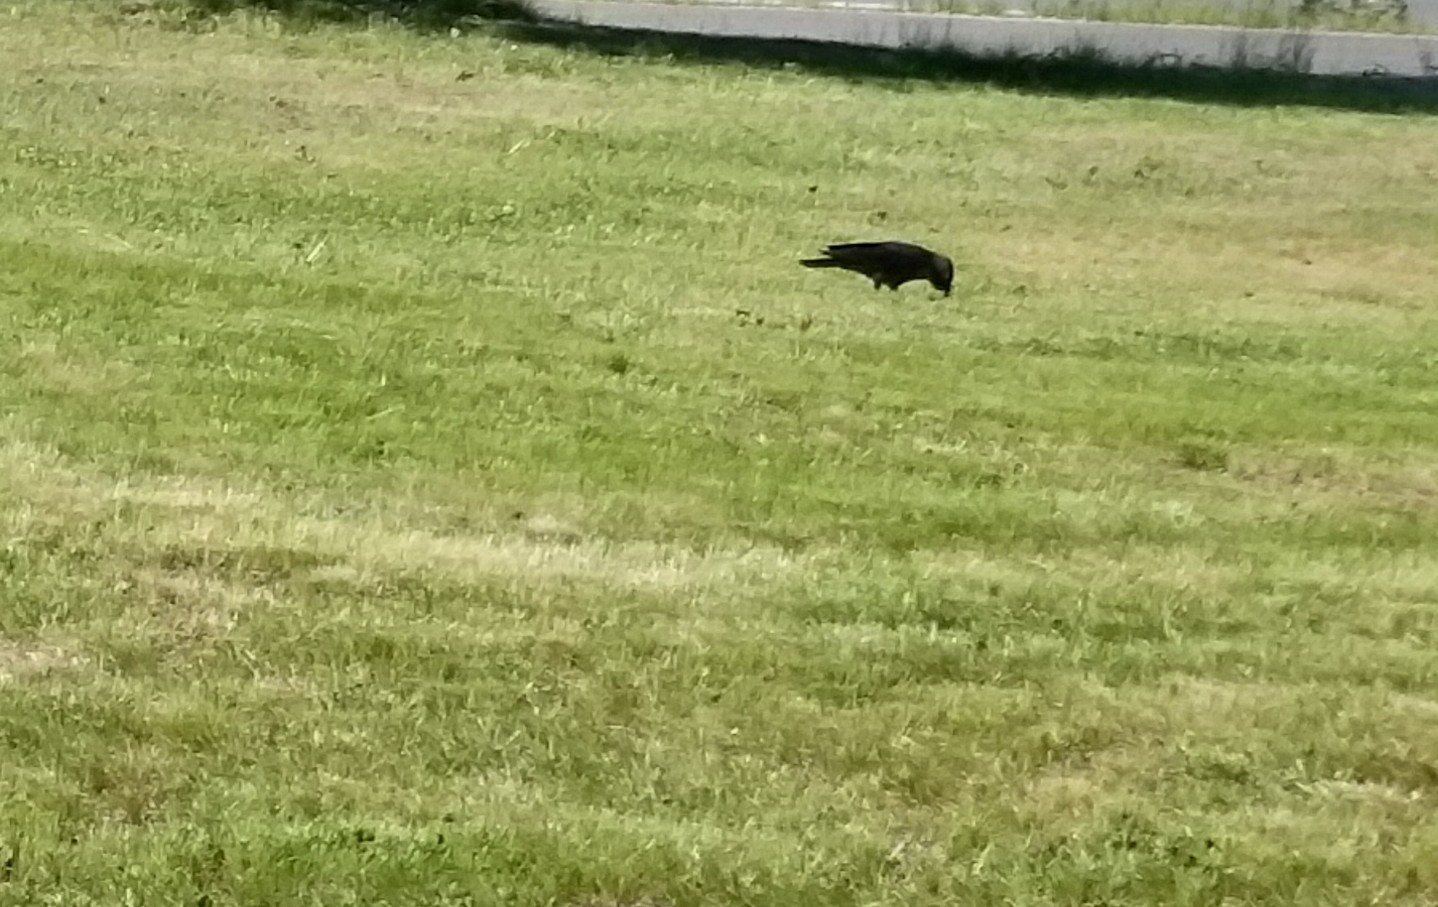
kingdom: Animalia
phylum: Chordata
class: Aves
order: Passeriformes
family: Corvidae
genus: Coloeus
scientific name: Coloeus monedula
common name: Western jackdaw
